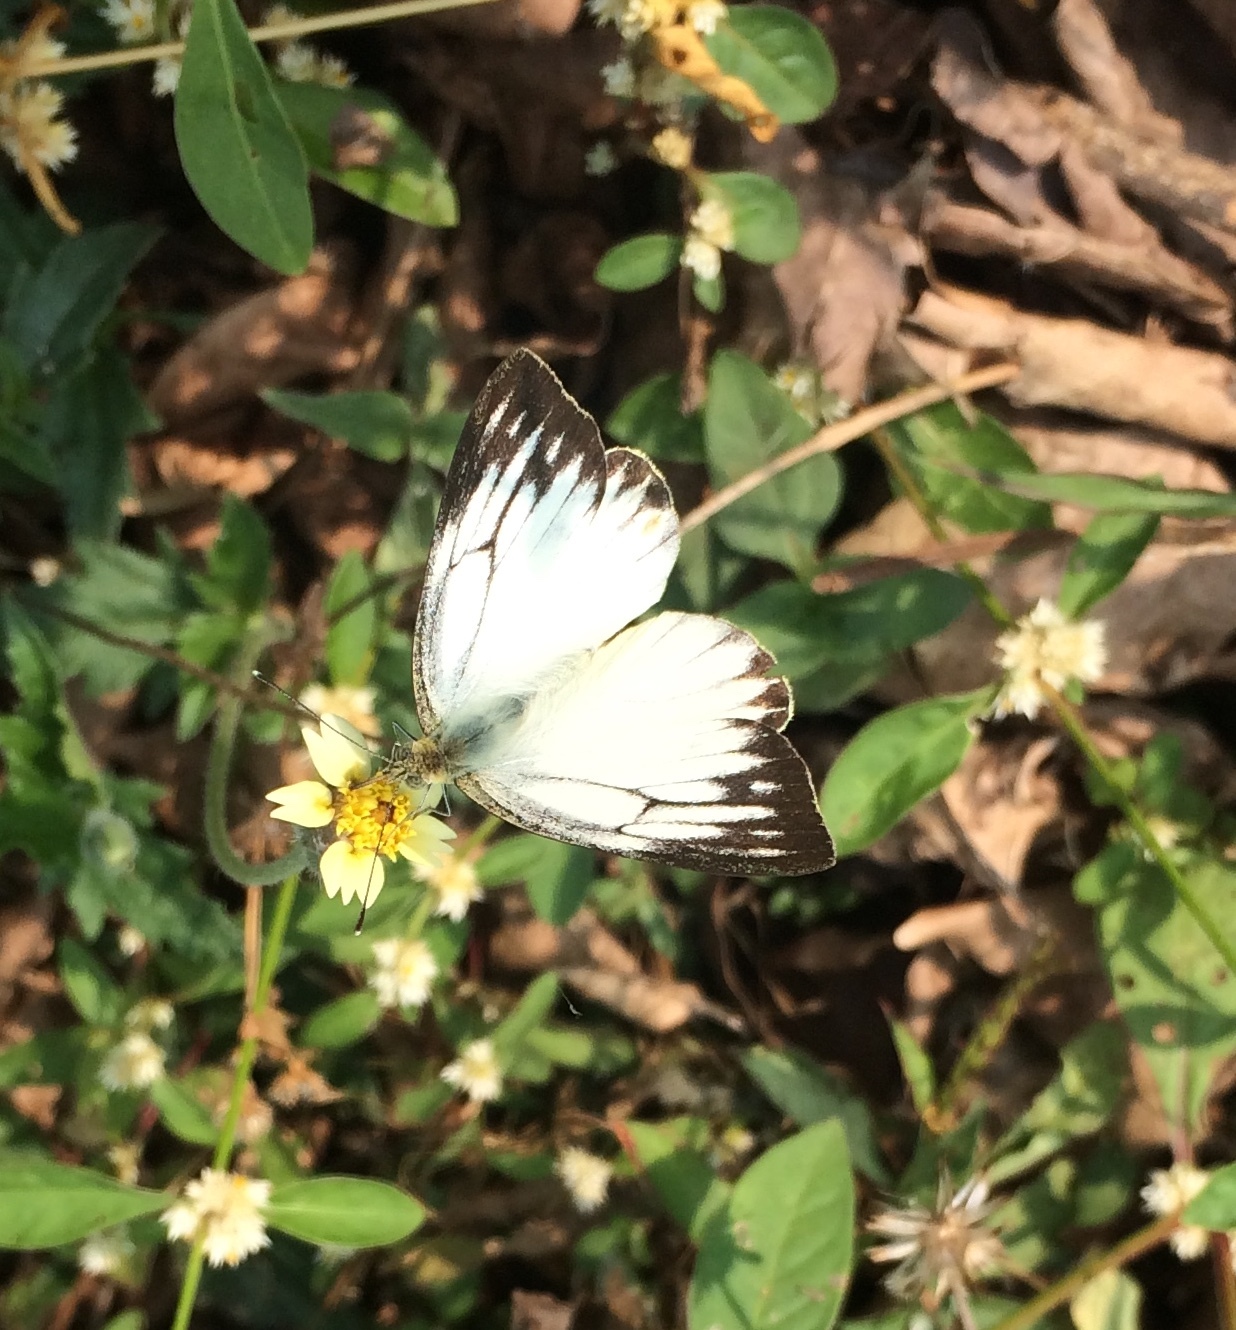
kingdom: Animalia
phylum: Arthropoda
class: Insecta
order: Lepidoptera
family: Pieridae
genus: Cepora
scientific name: Cepora nerissa
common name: Common gull
